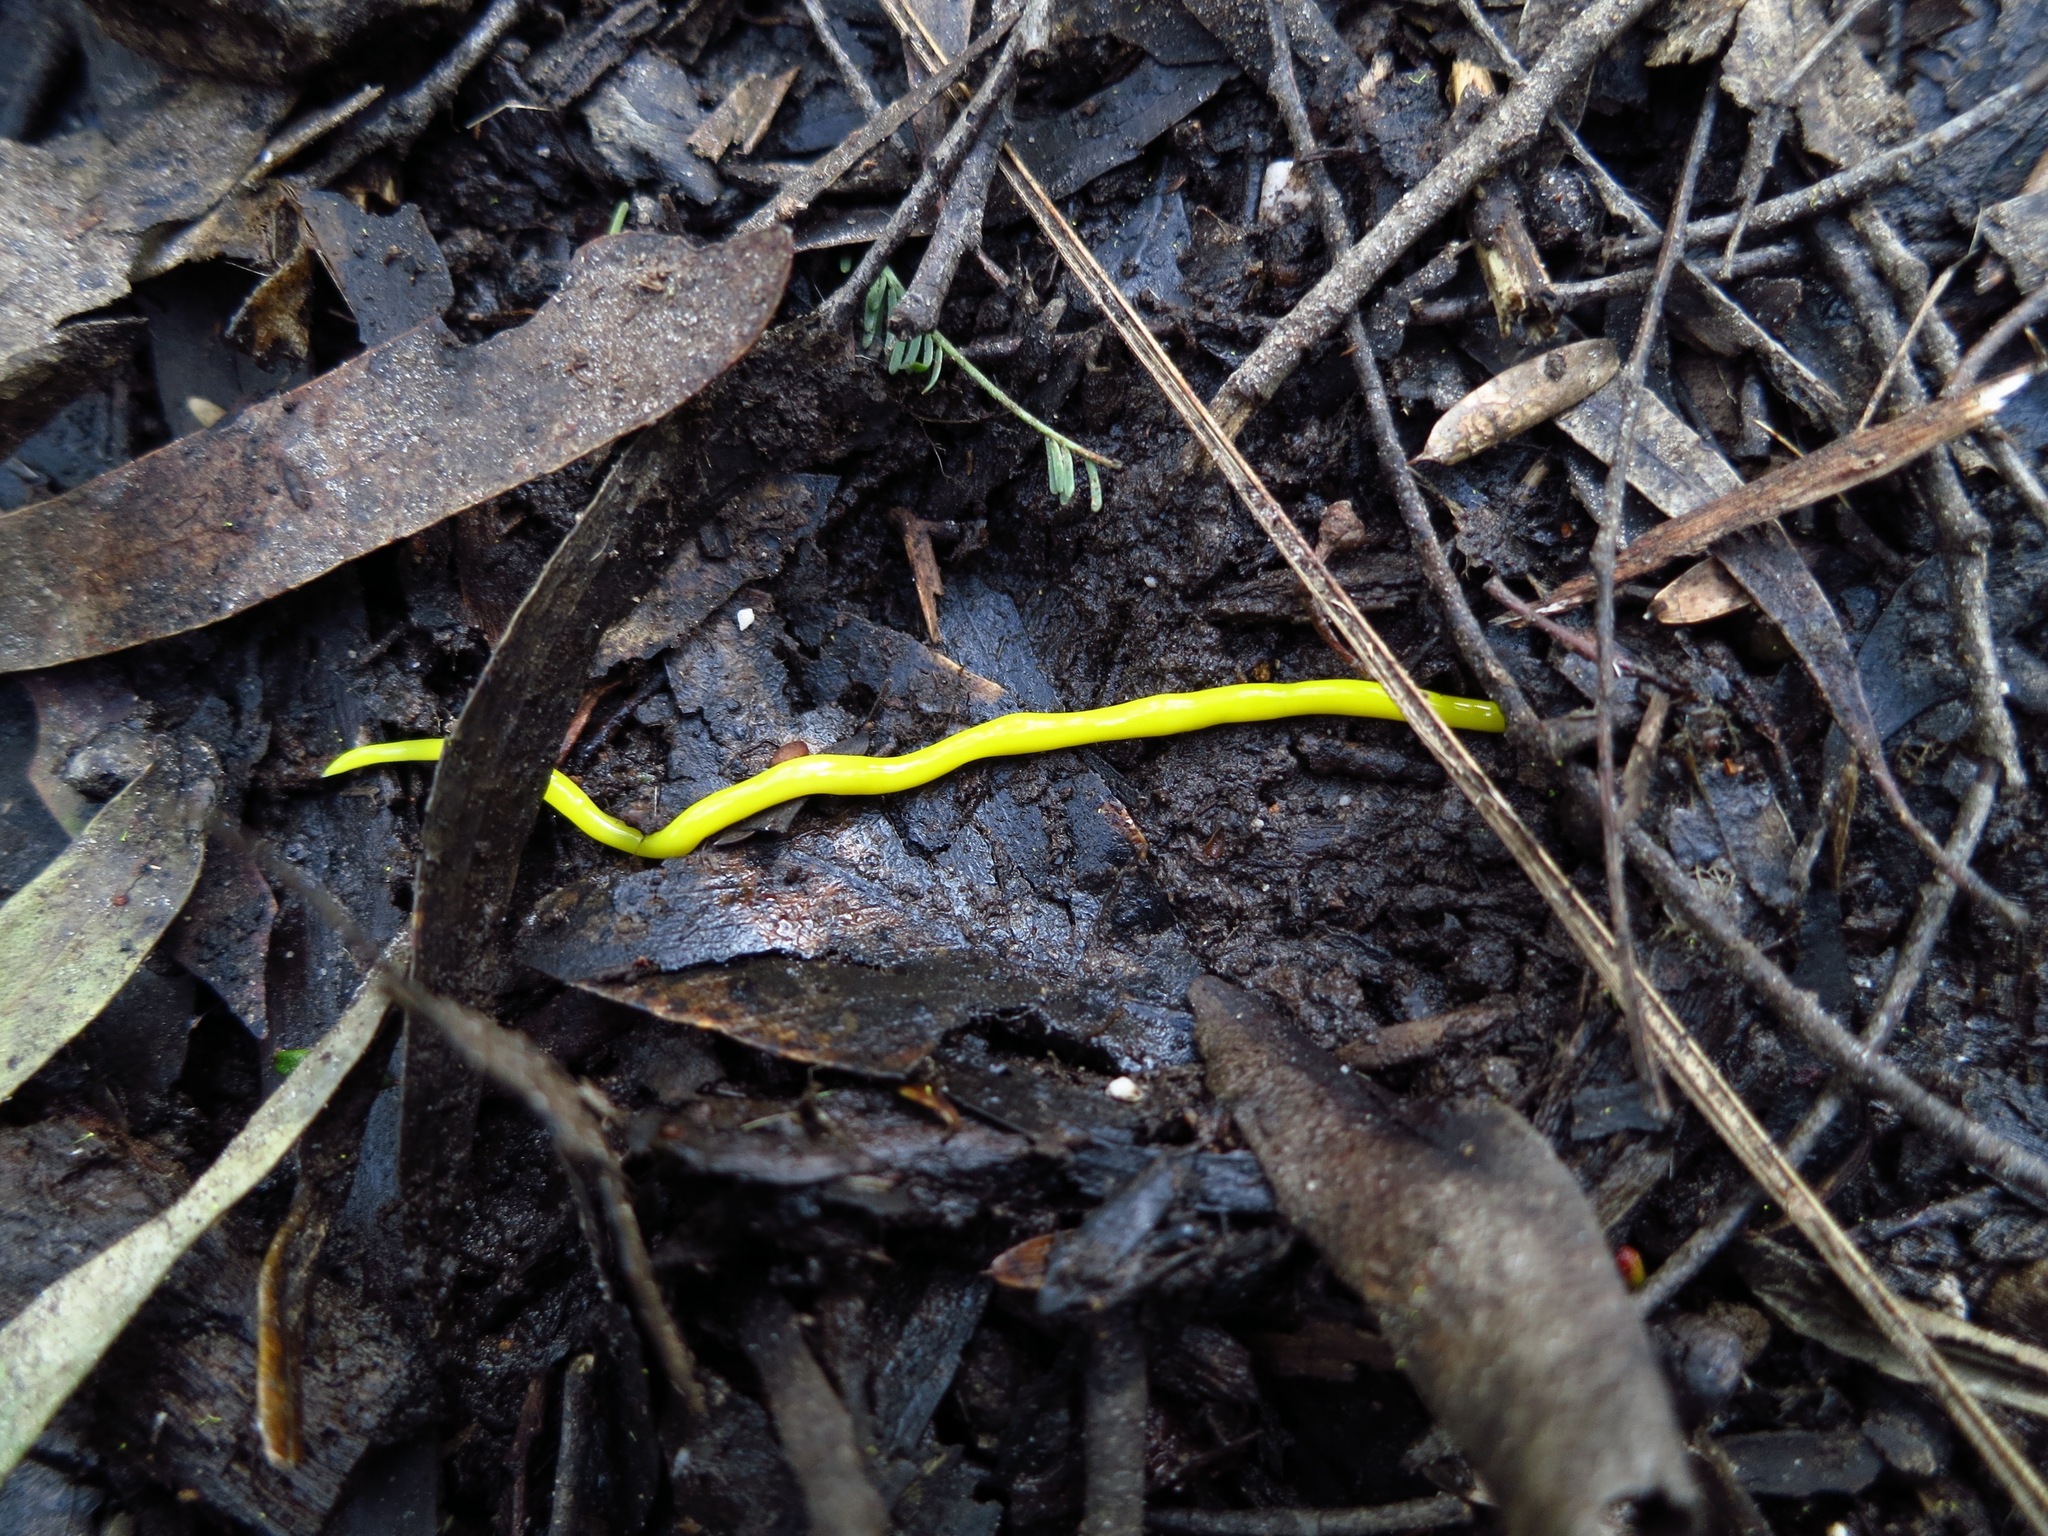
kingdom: Animalia
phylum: Platyhelminthes
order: Tricladida
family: Geoplanidae
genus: Fletchamia
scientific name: Fletchamia sugdeni
